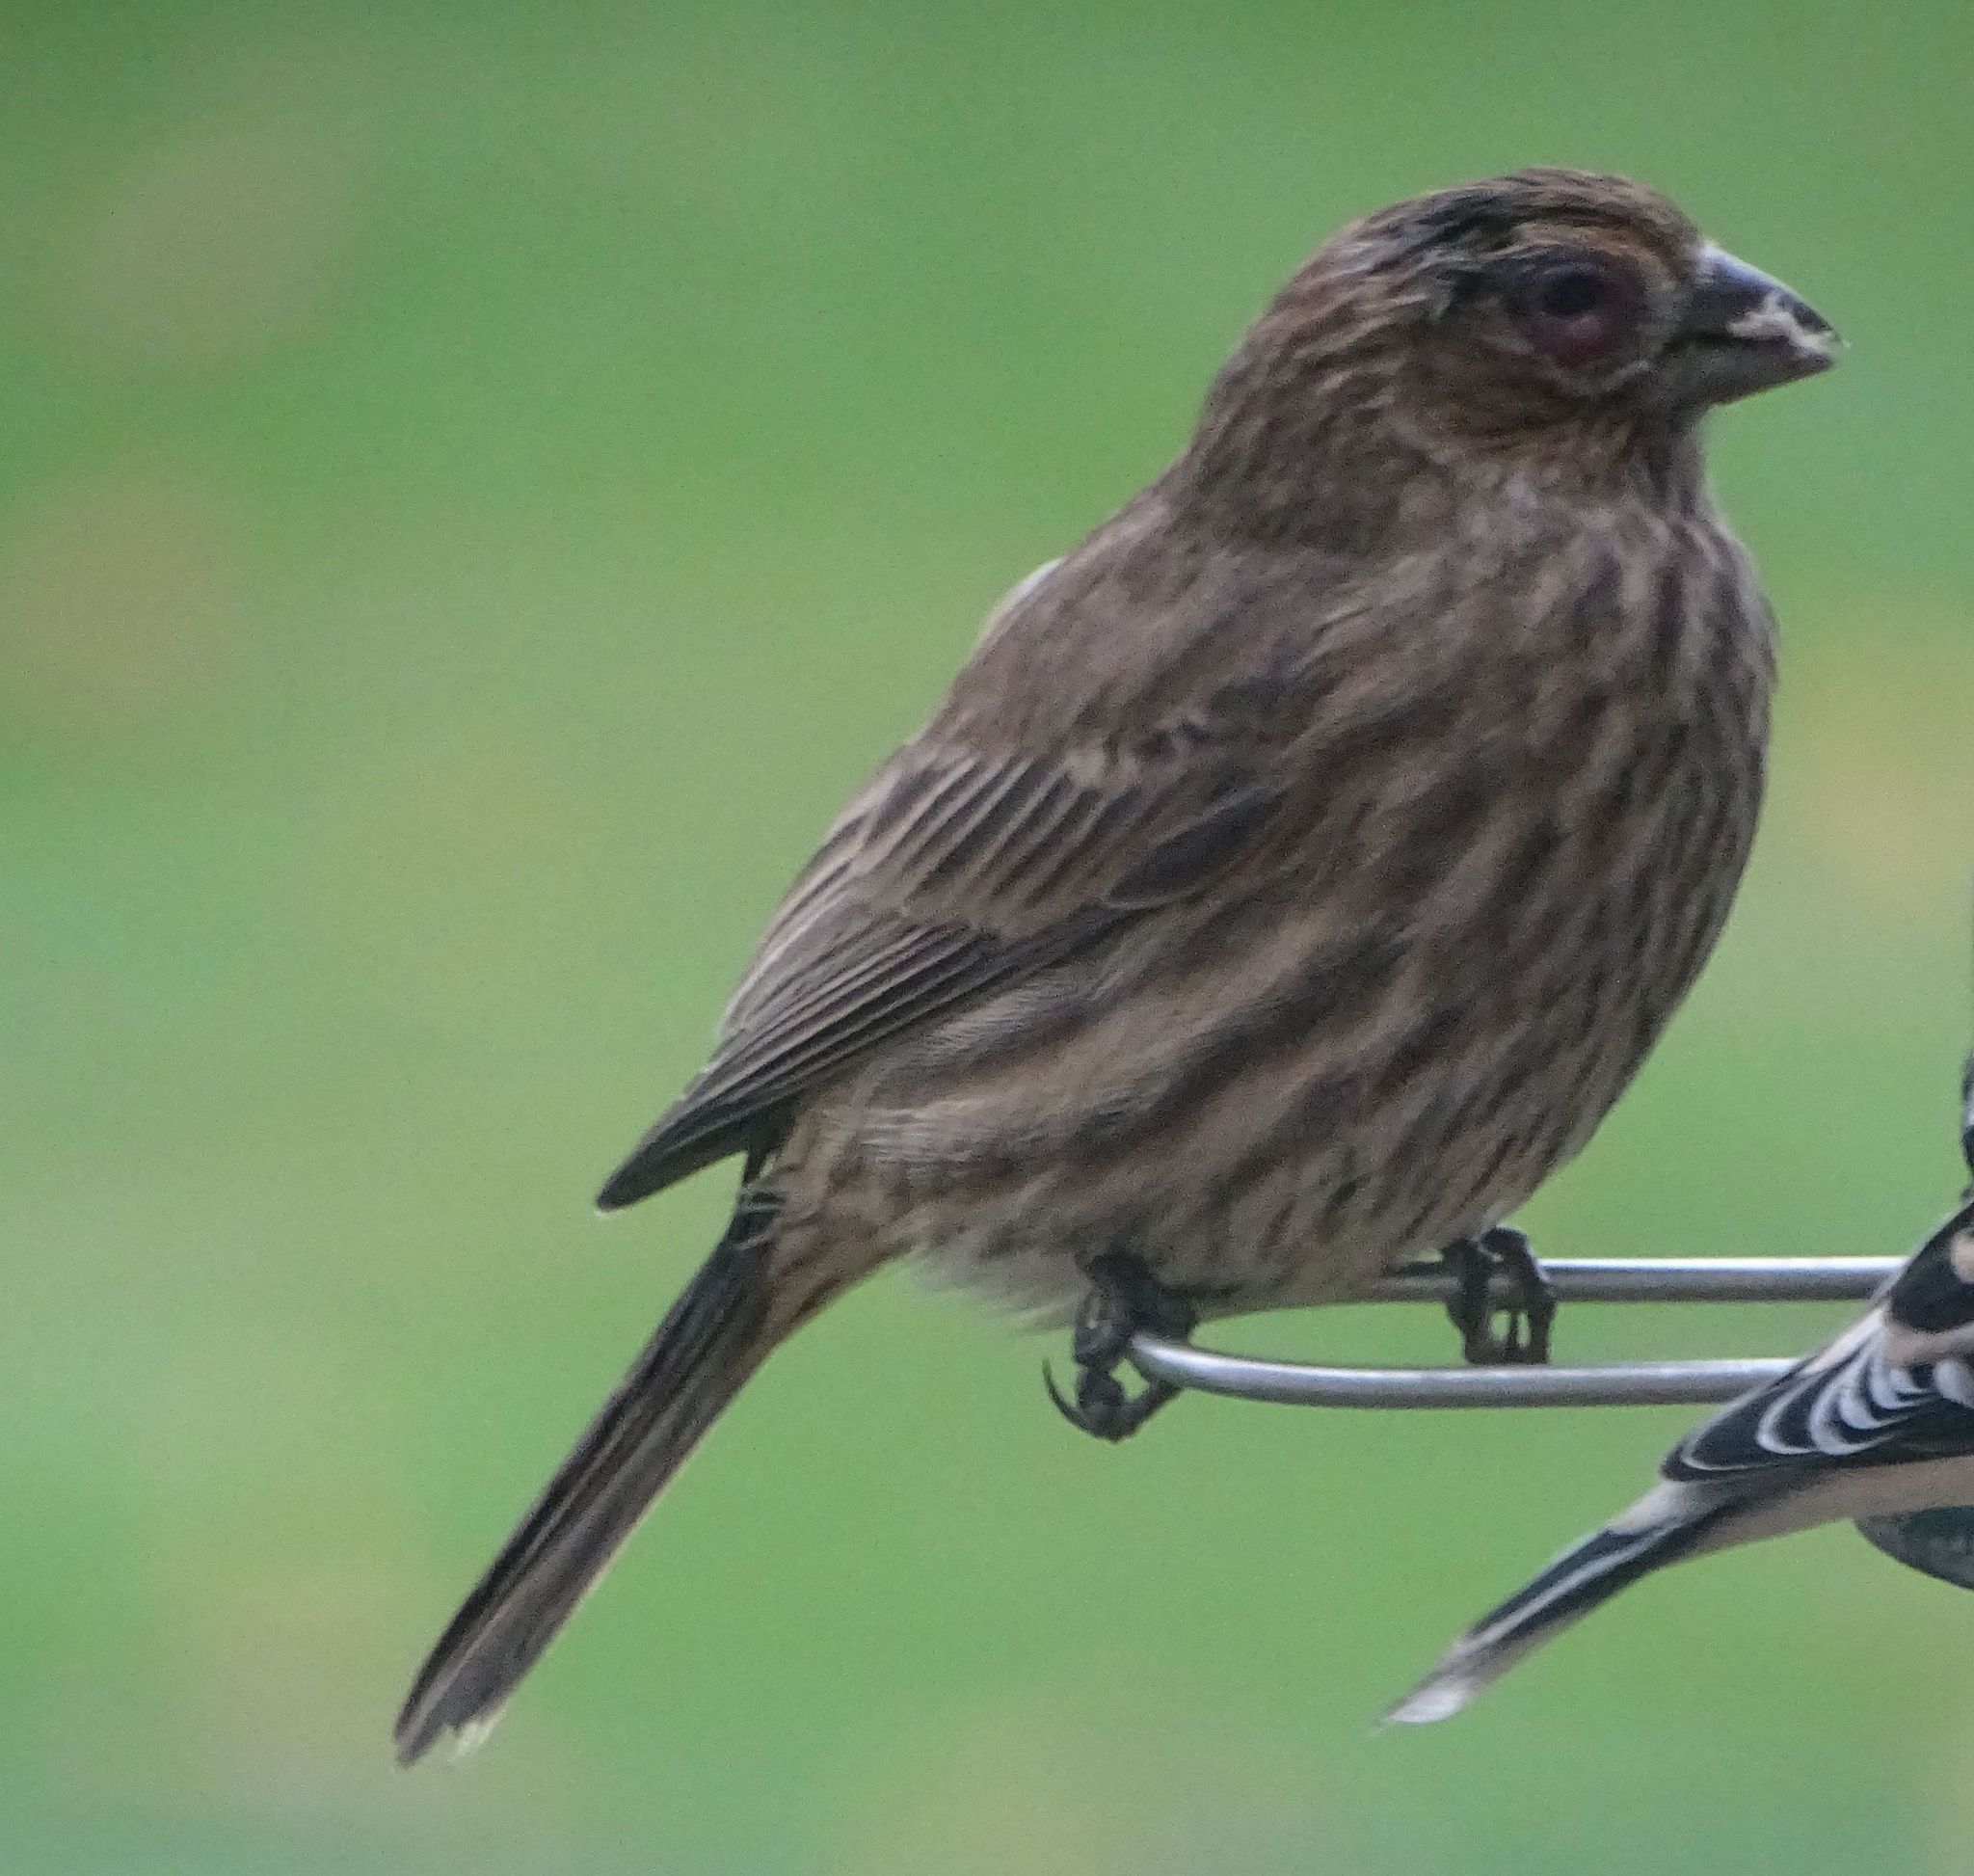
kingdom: Animalia
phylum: Chordata
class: Aves
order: Passeriformes
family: Fringillidae
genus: Haemorhous
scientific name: Haemorhous mexicanus
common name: House finch
